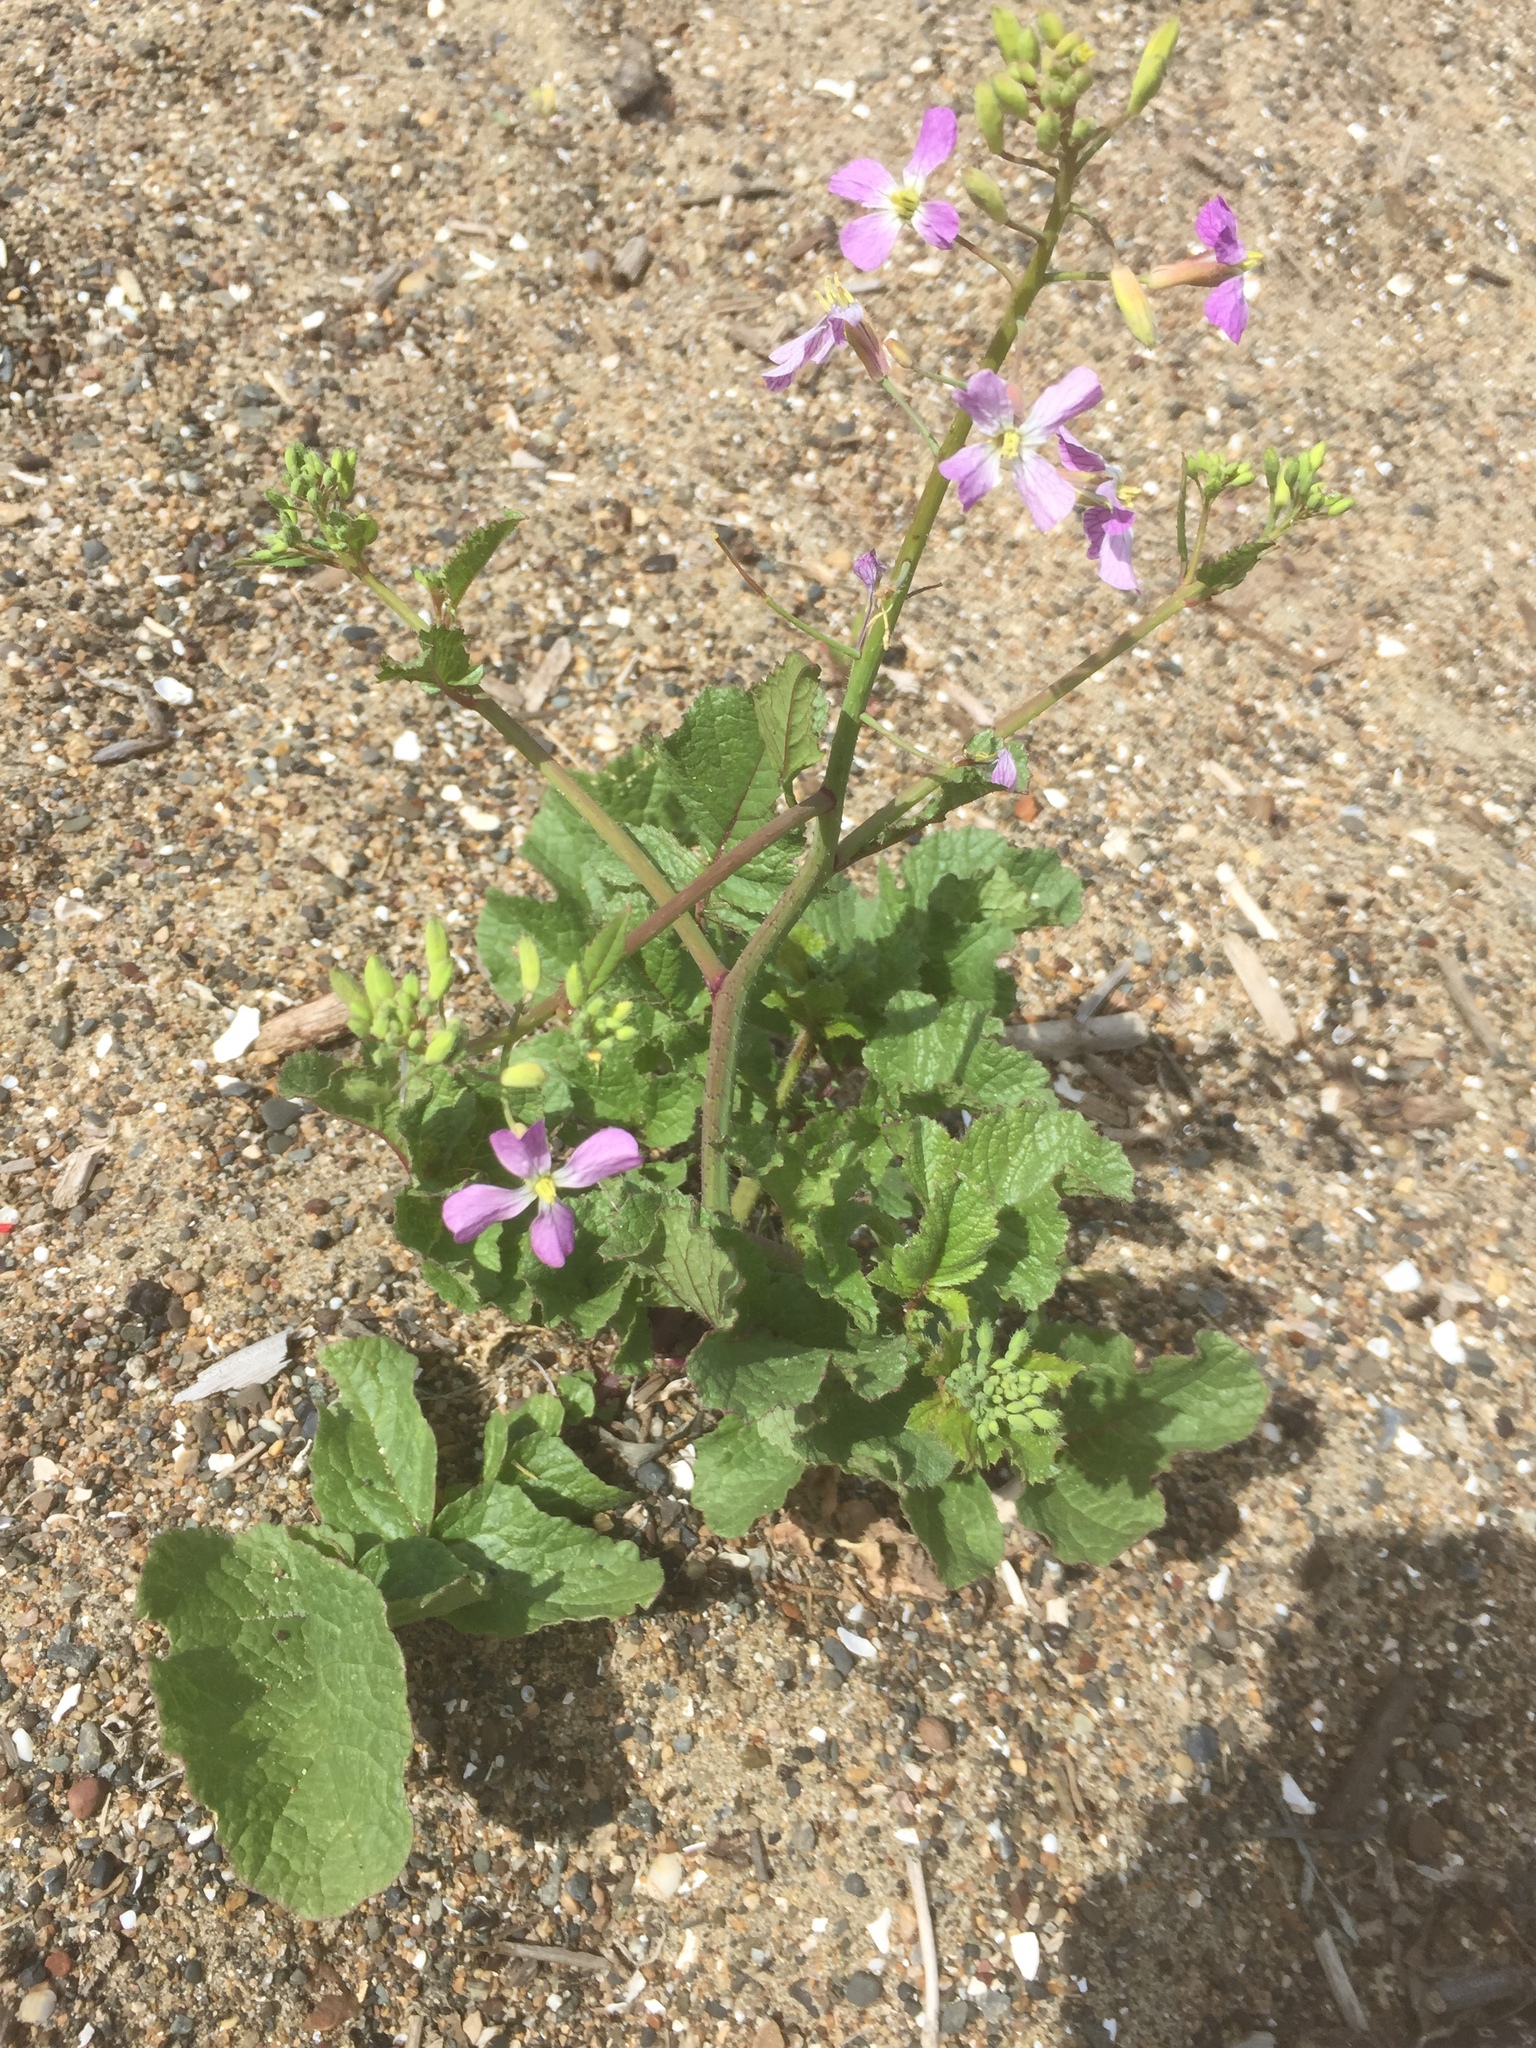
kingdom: Plantae
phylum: Tracheophyta
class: Magnoliopsida
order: Brassicales
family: Brassicaceae
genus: Raphanus
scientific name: Raphanus sativus
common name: Cultivated radish
